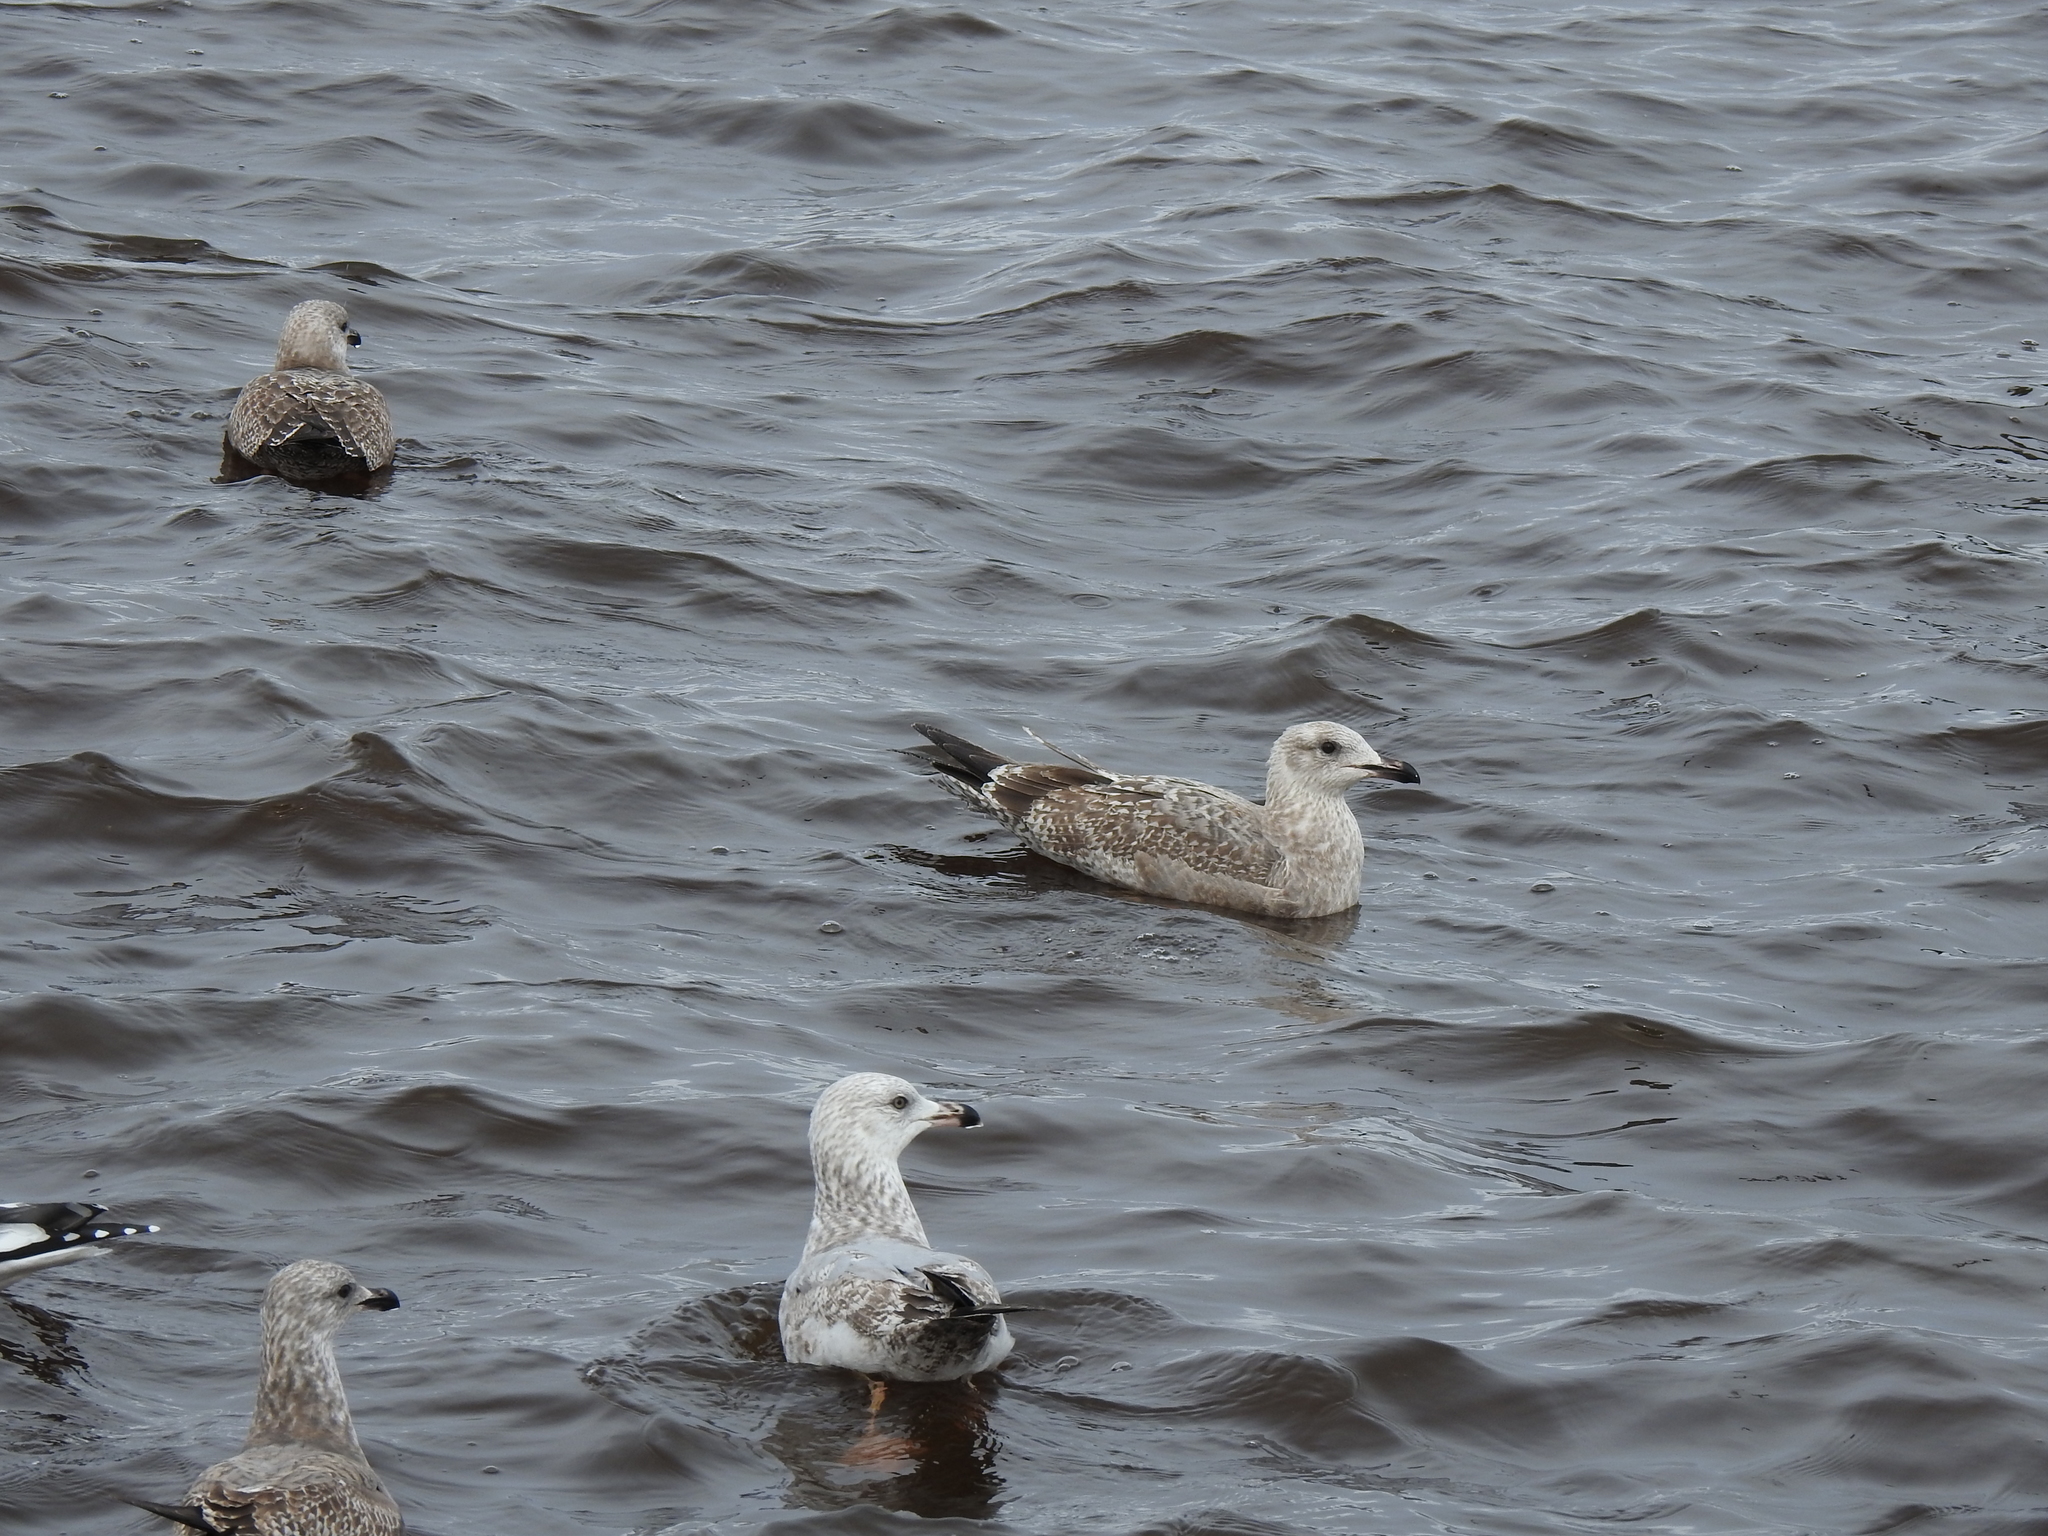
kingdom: Animalia
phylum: Chordata
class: Aves
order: Charadriiformes
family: Laridae
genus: Larus
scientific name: Larus smithsonianus
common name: American herring gull
